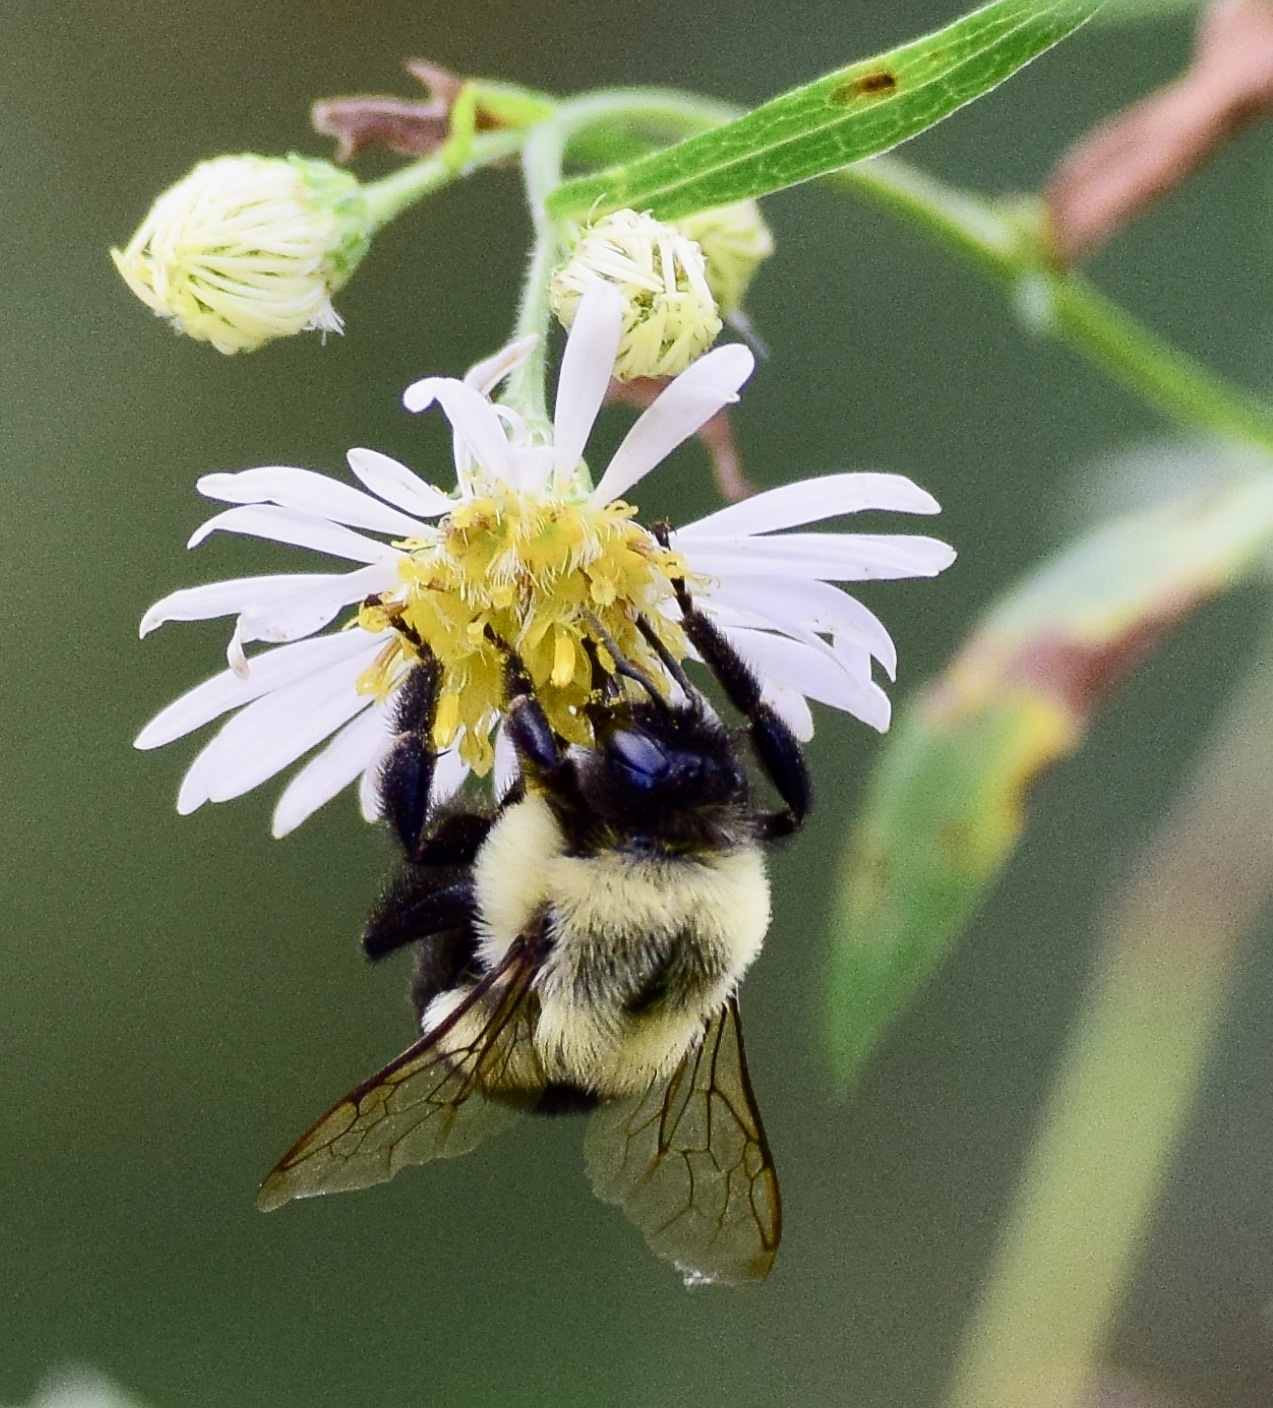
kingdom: Animalia
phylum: Arthropoda
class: Insecta
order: Hymenoptera
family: Apidae
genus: Bombus
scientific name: Bombus impatiens
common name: Common eastern bumble bee
